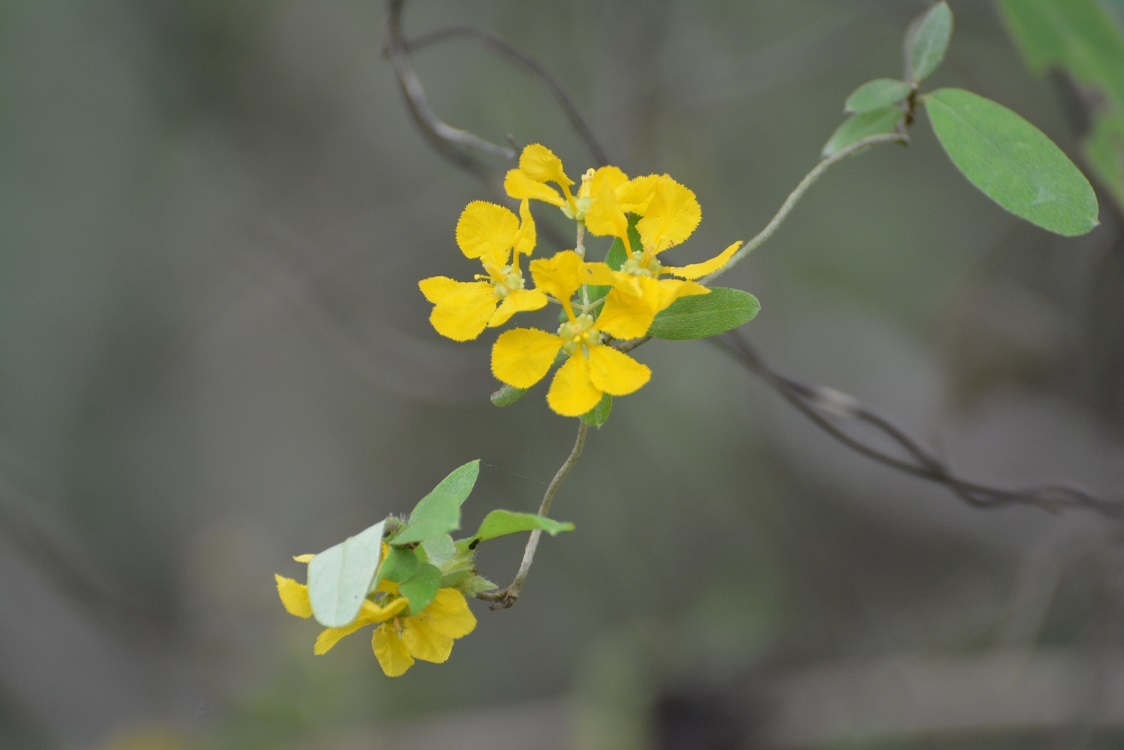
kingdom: Plantae
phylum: Tracheophyta
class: Magnoliopsida
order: Malpighiales
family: Malpighiaceae
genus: Gaudichaudia
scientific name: Gaudichaudia cynanchoides
